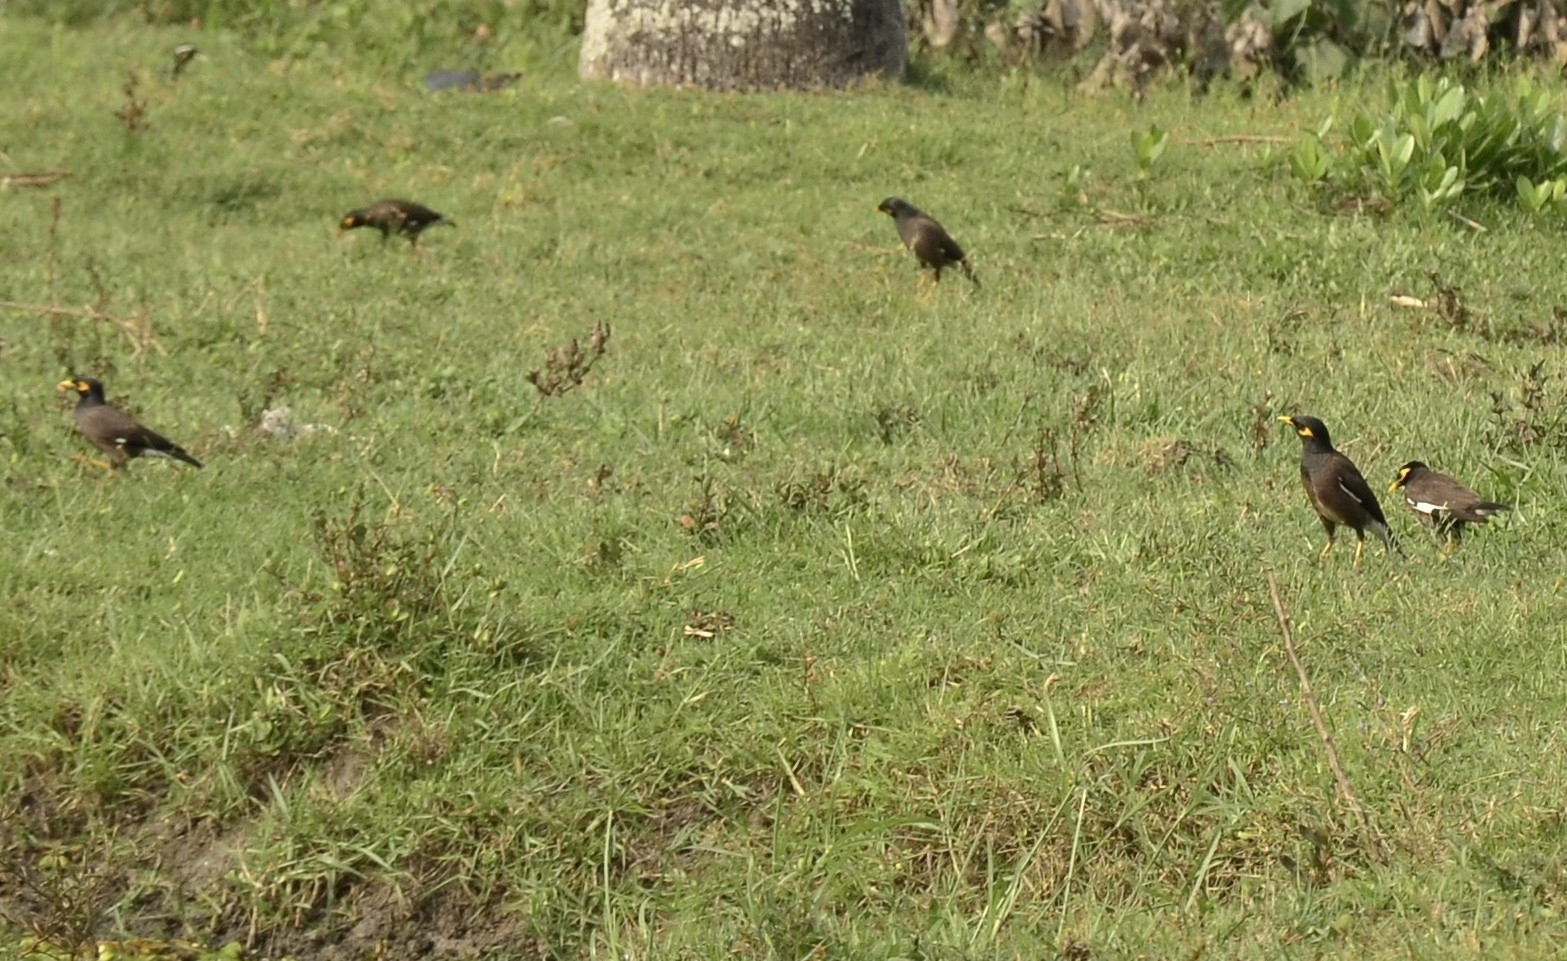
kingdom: Animalia
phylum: Chordata
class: Aves
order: Passeriformes
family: Sturnidae
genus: Acridotheres
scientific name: Acridotheres tristis
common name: Common myna
